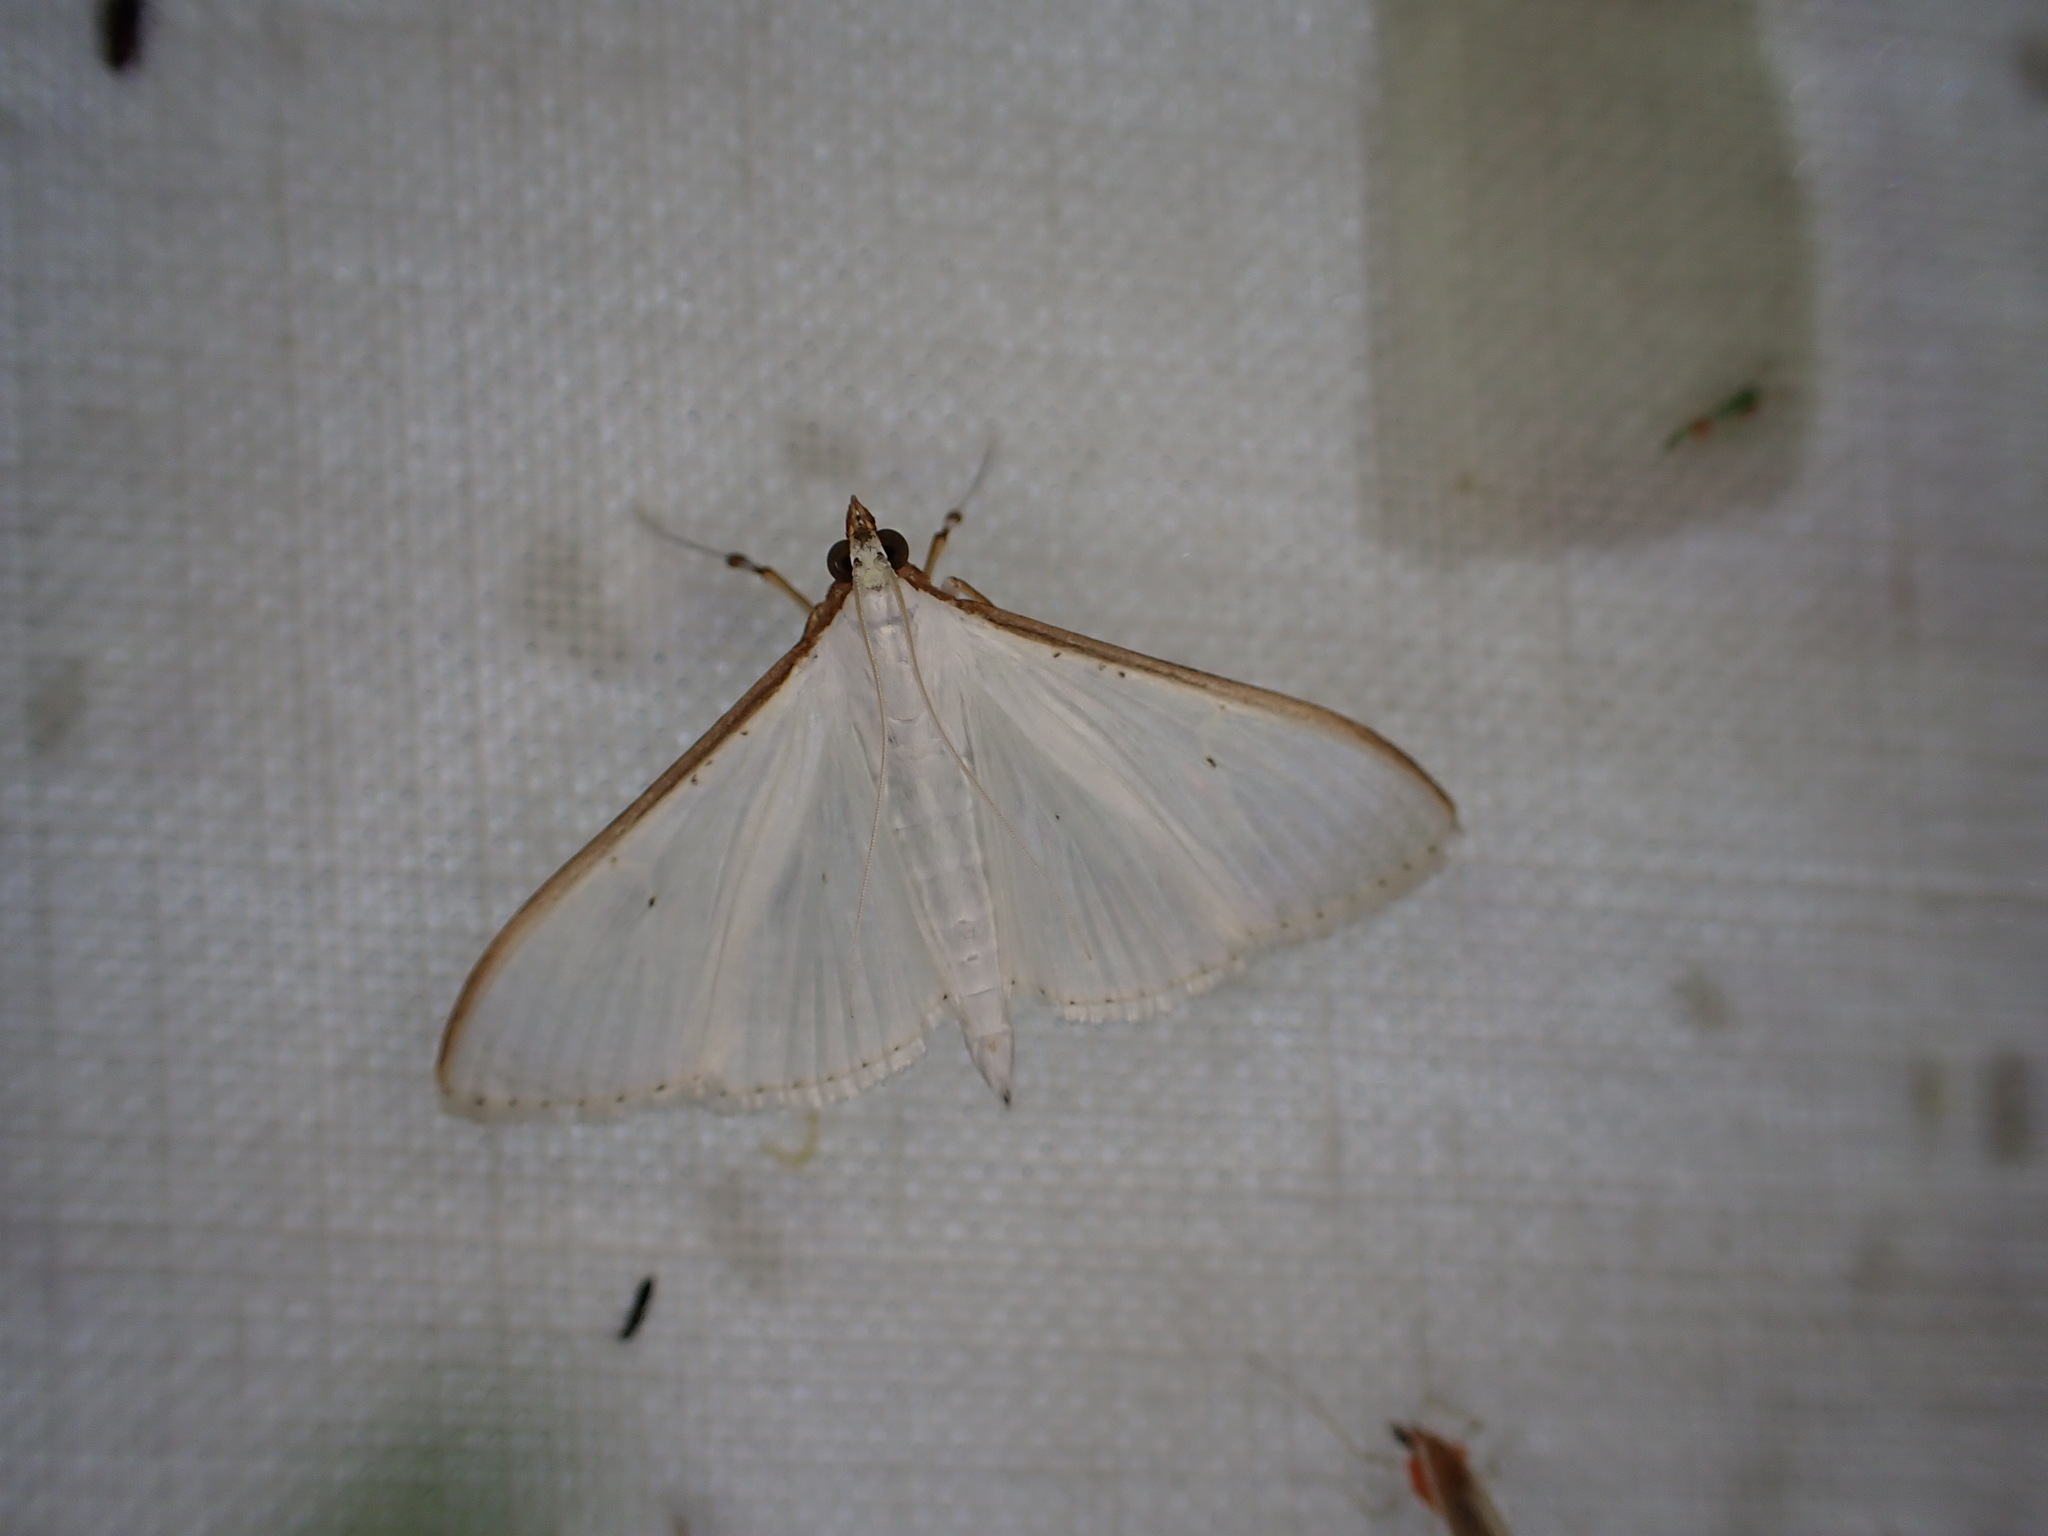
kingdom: Animalia
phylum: Arthropoda
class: Insecta
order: Lepidoptera
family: Crambidae
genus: Palpita
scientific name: Palpita vitrealis
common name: Olive-tree pearl
